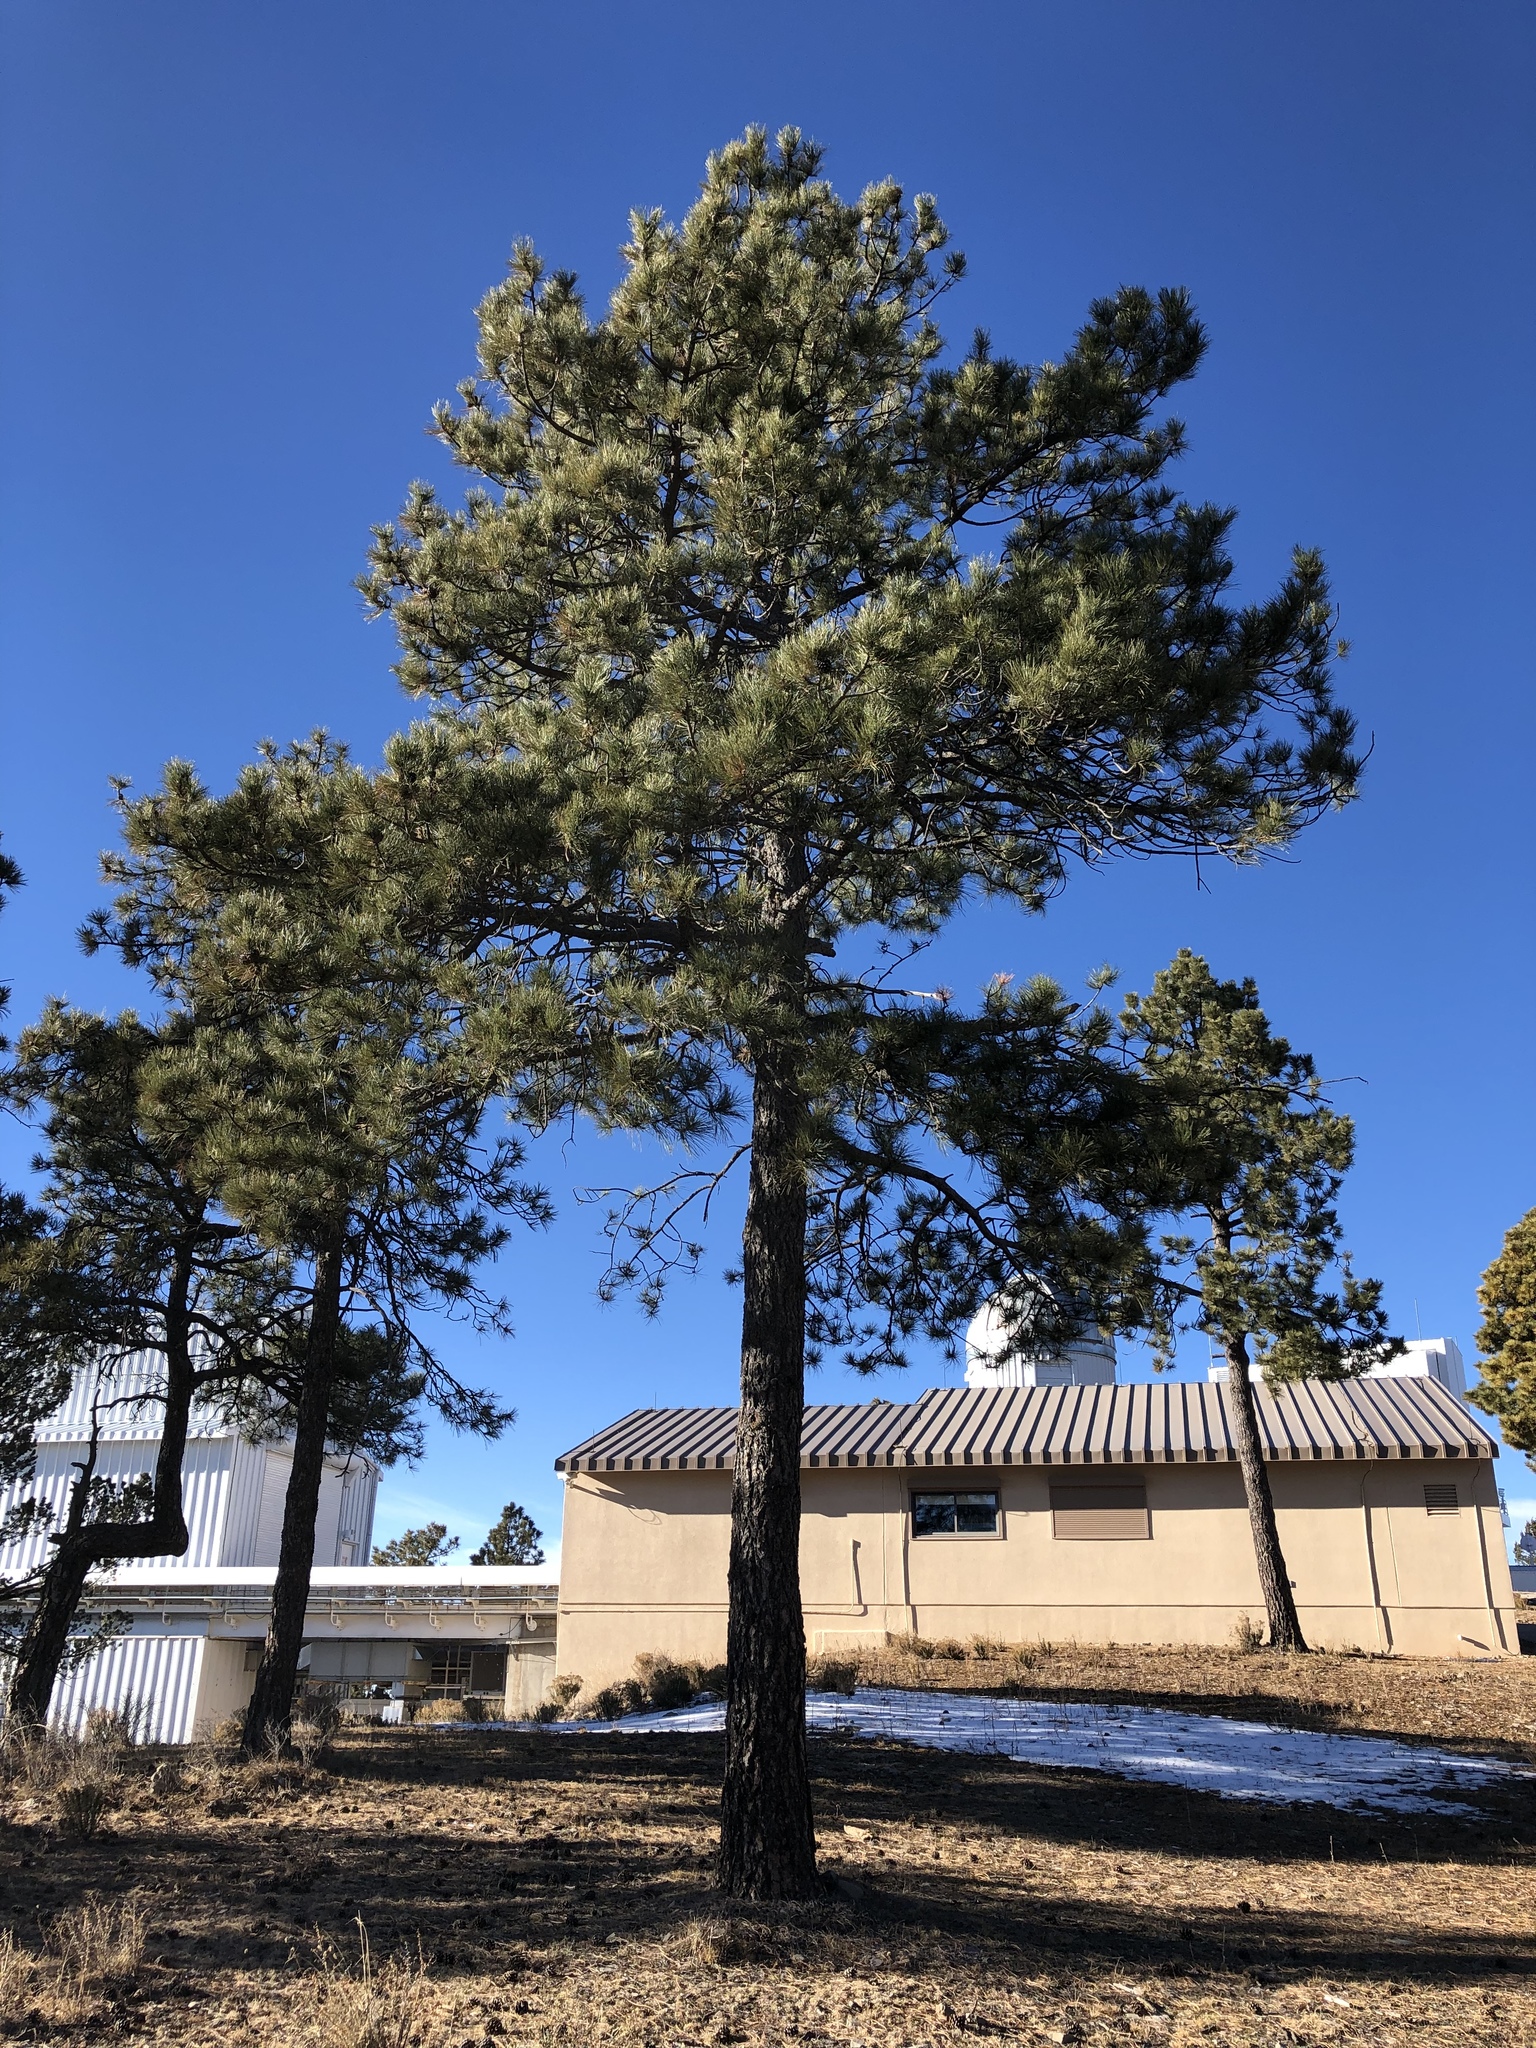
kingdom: Plantae
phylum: Tracheophyta
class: Pinopsida
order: Pinales
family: Pinaceae
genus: Pinus
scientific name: Pinus ponderosa
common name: Western yellow-pine
